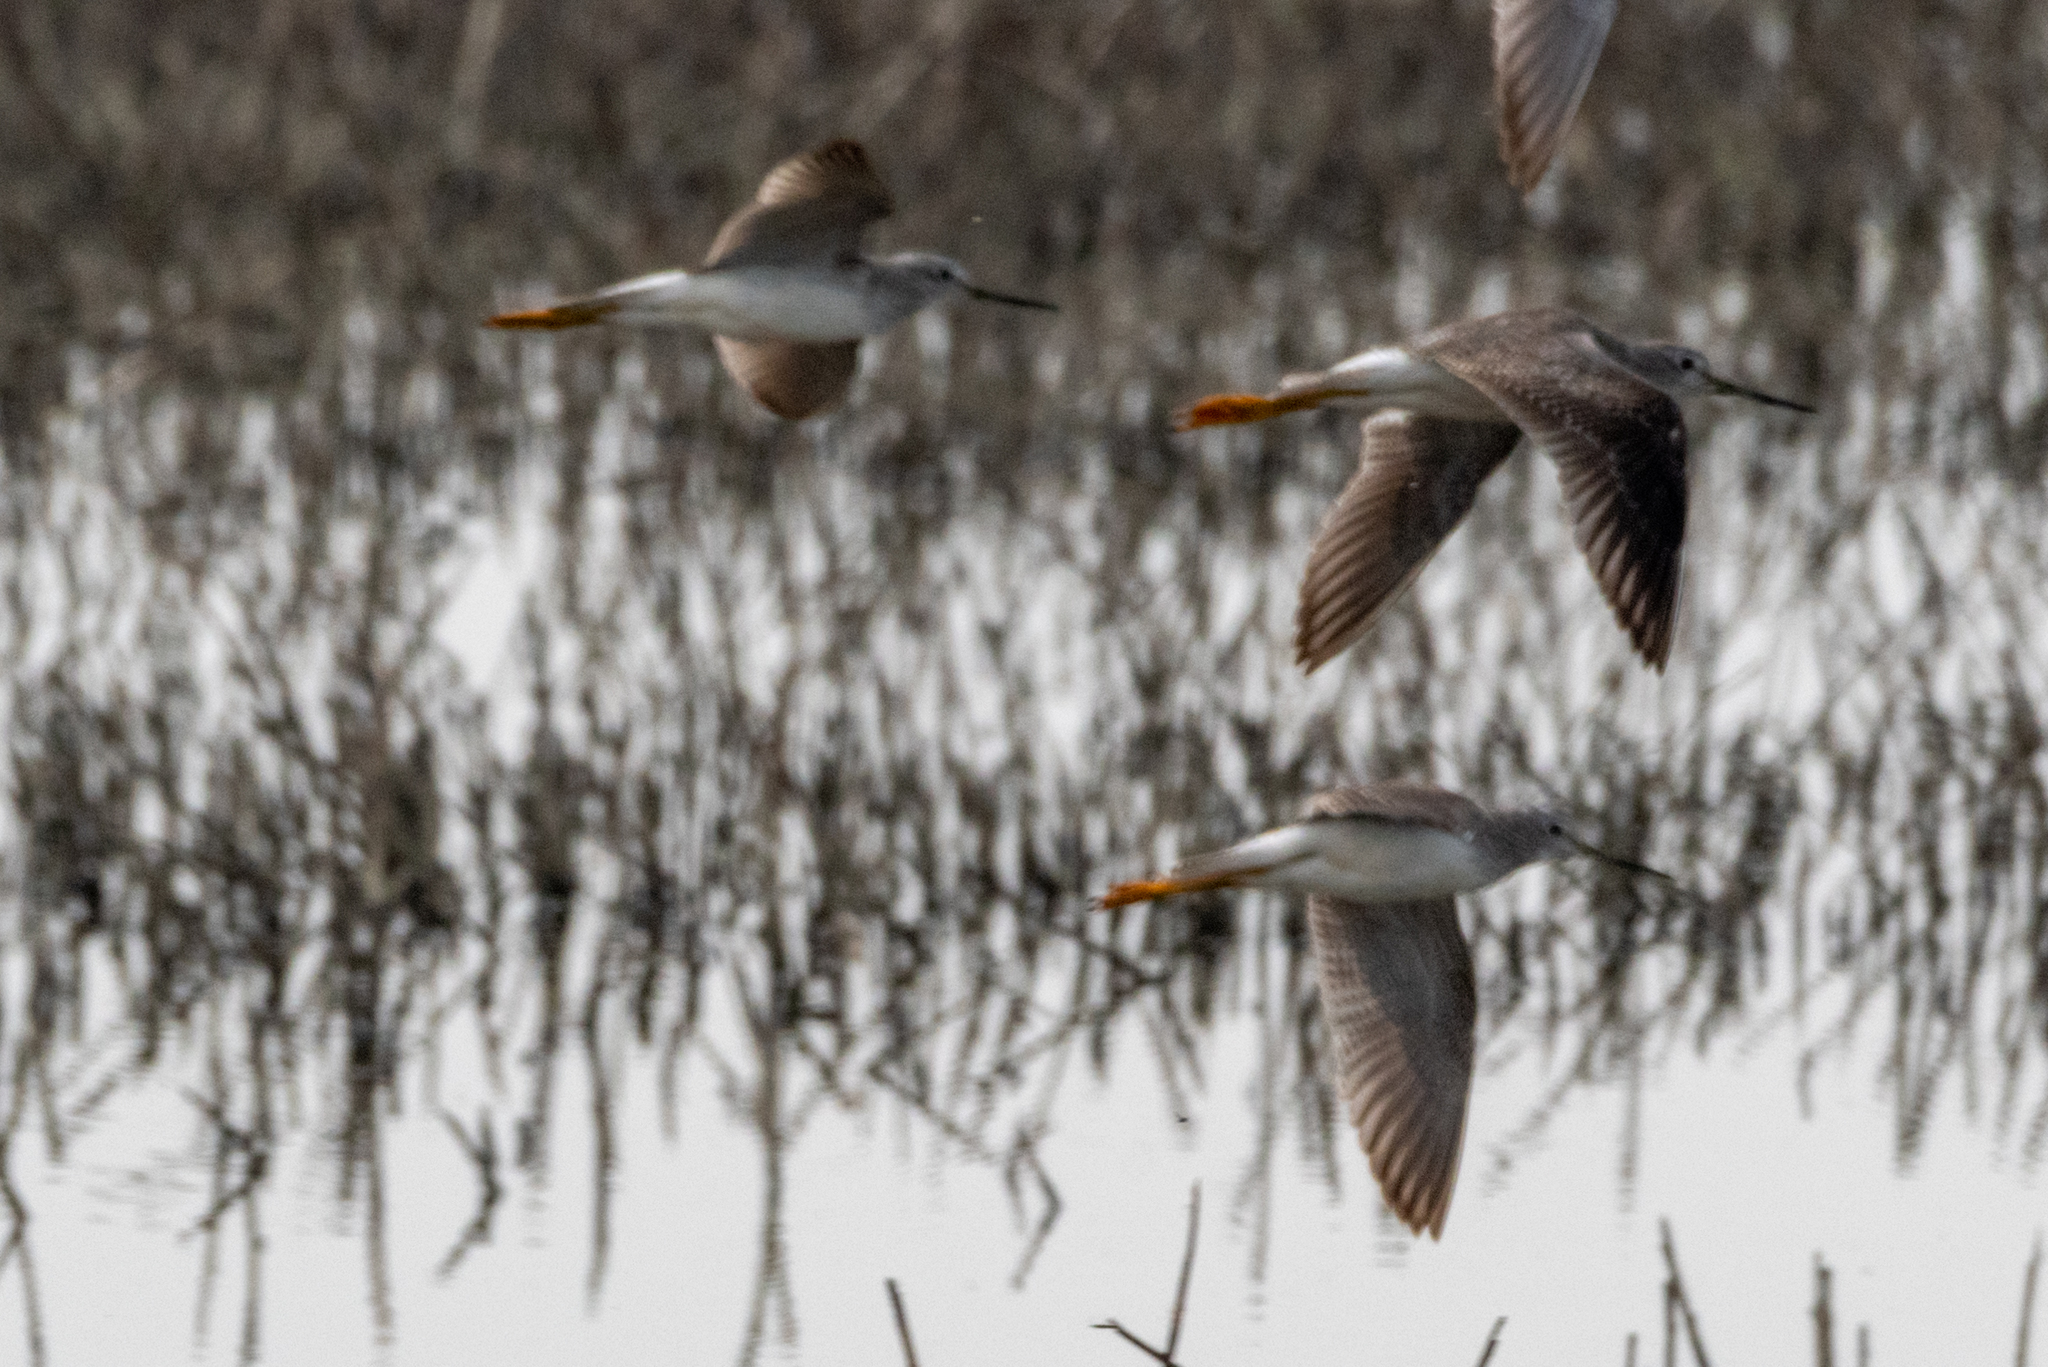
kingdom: Animalia
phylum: Chordata
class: Aves
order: Charadriiformes
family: Scolopacidae
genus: Tringa
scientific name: Tringa melanoleuca
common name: Greater yellowlegs
